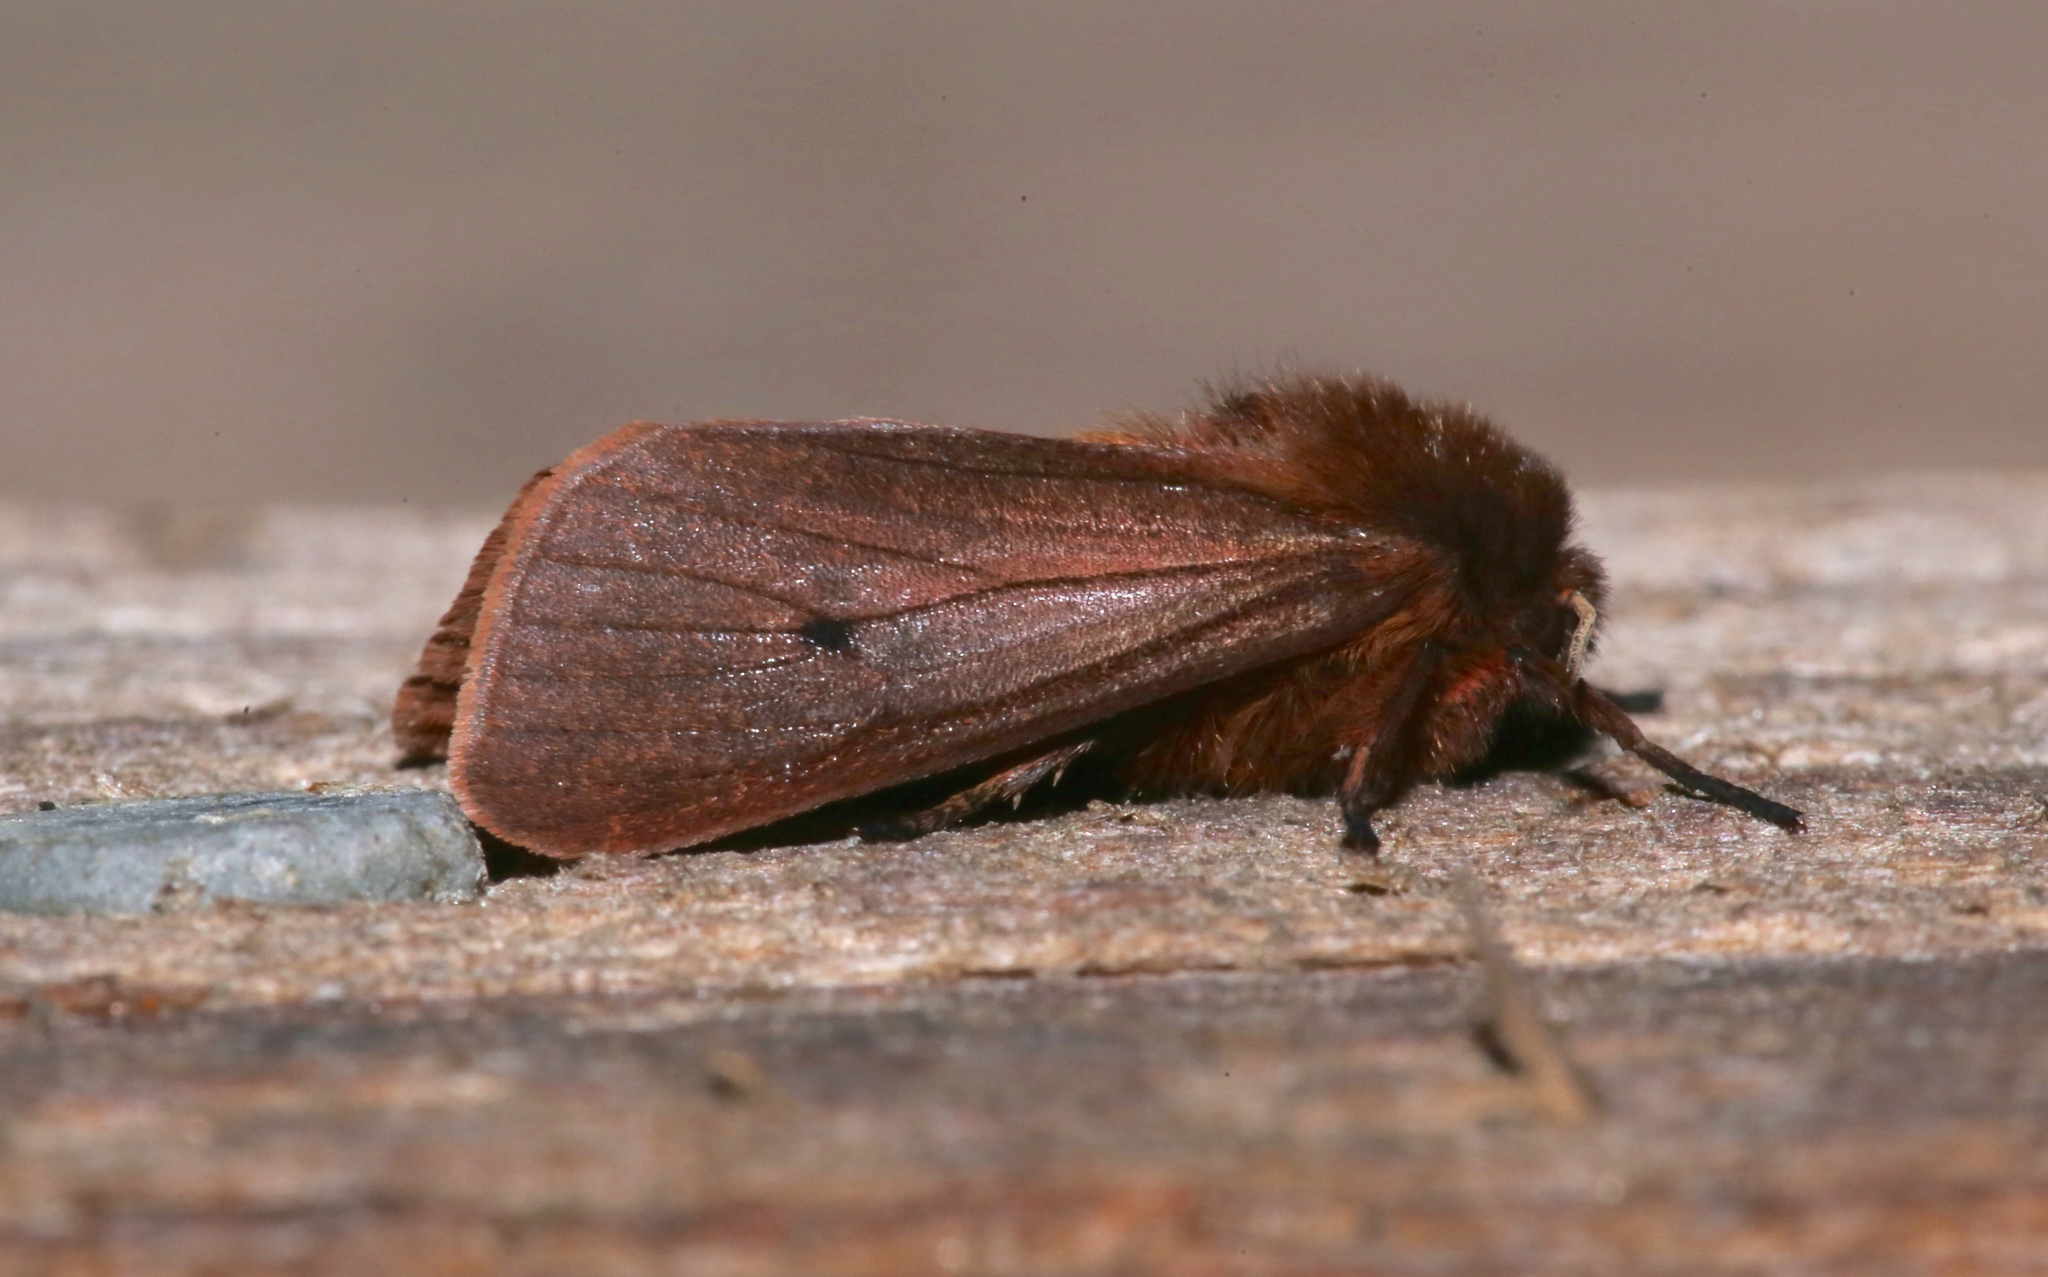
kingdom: Animalia
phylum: Arthropoda
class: Insecta
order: Lepidoptera
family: Erebidae
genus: Phragmatobia
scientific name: Phragmatobia fuliginosa
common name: Ruby tiger
